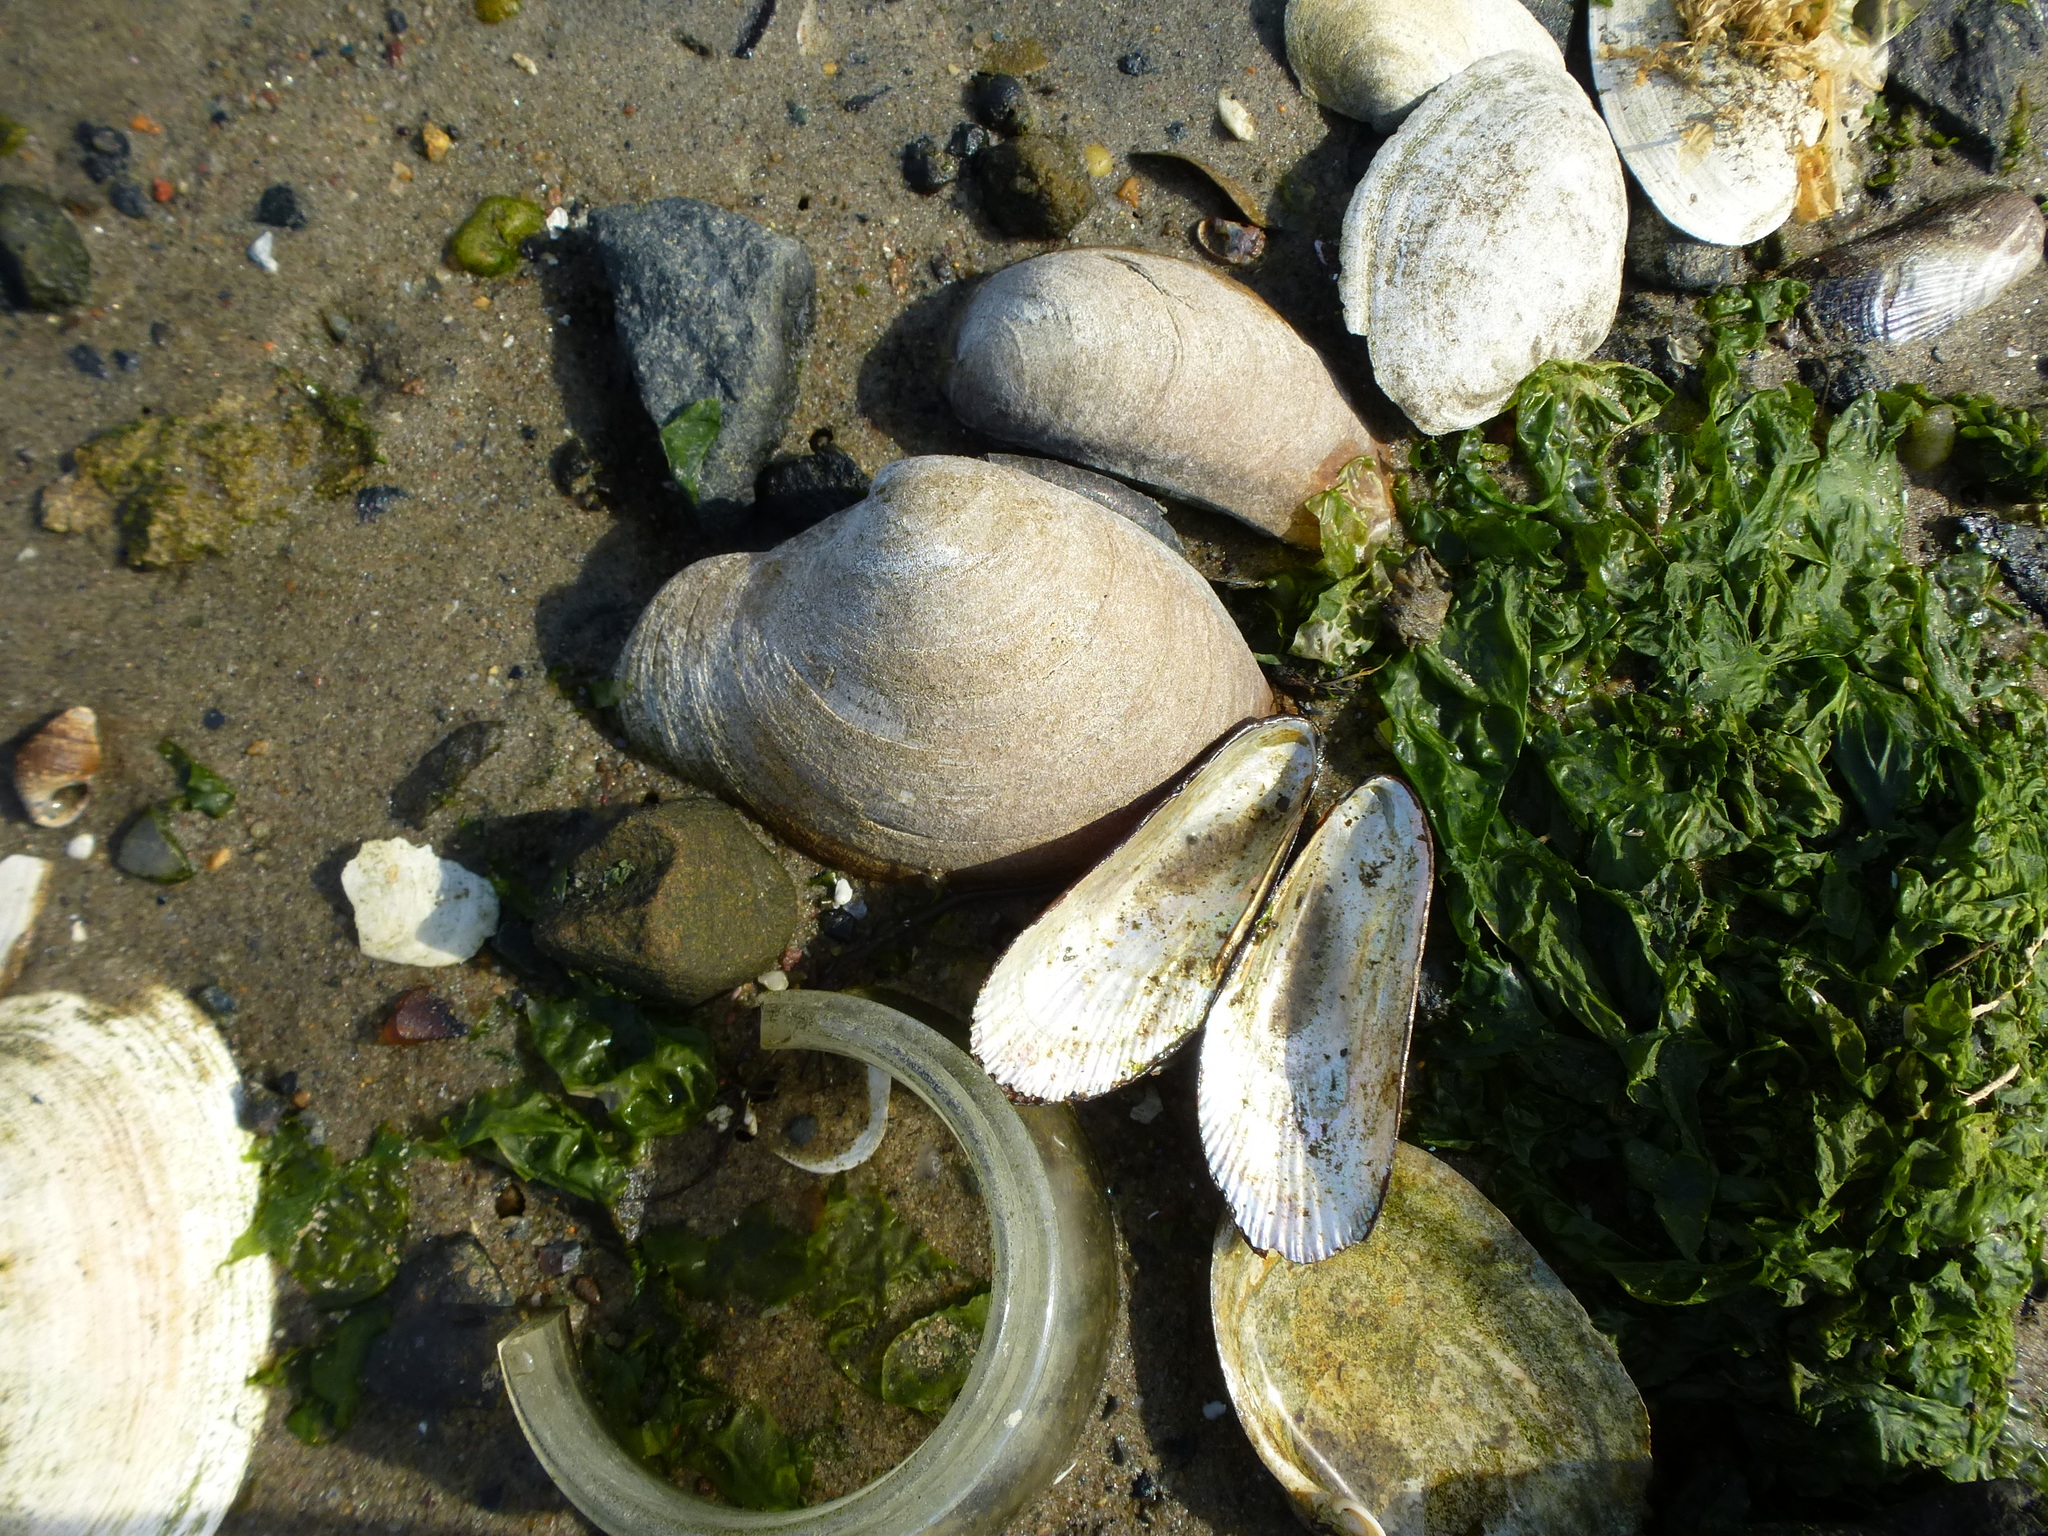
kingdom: Animalia
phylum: Mollusca
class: Bivalvia
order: Venerida
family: Veneridae
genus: Mercenaria
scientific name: Mercenaria mercenaria
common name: American hard-shelled clam
